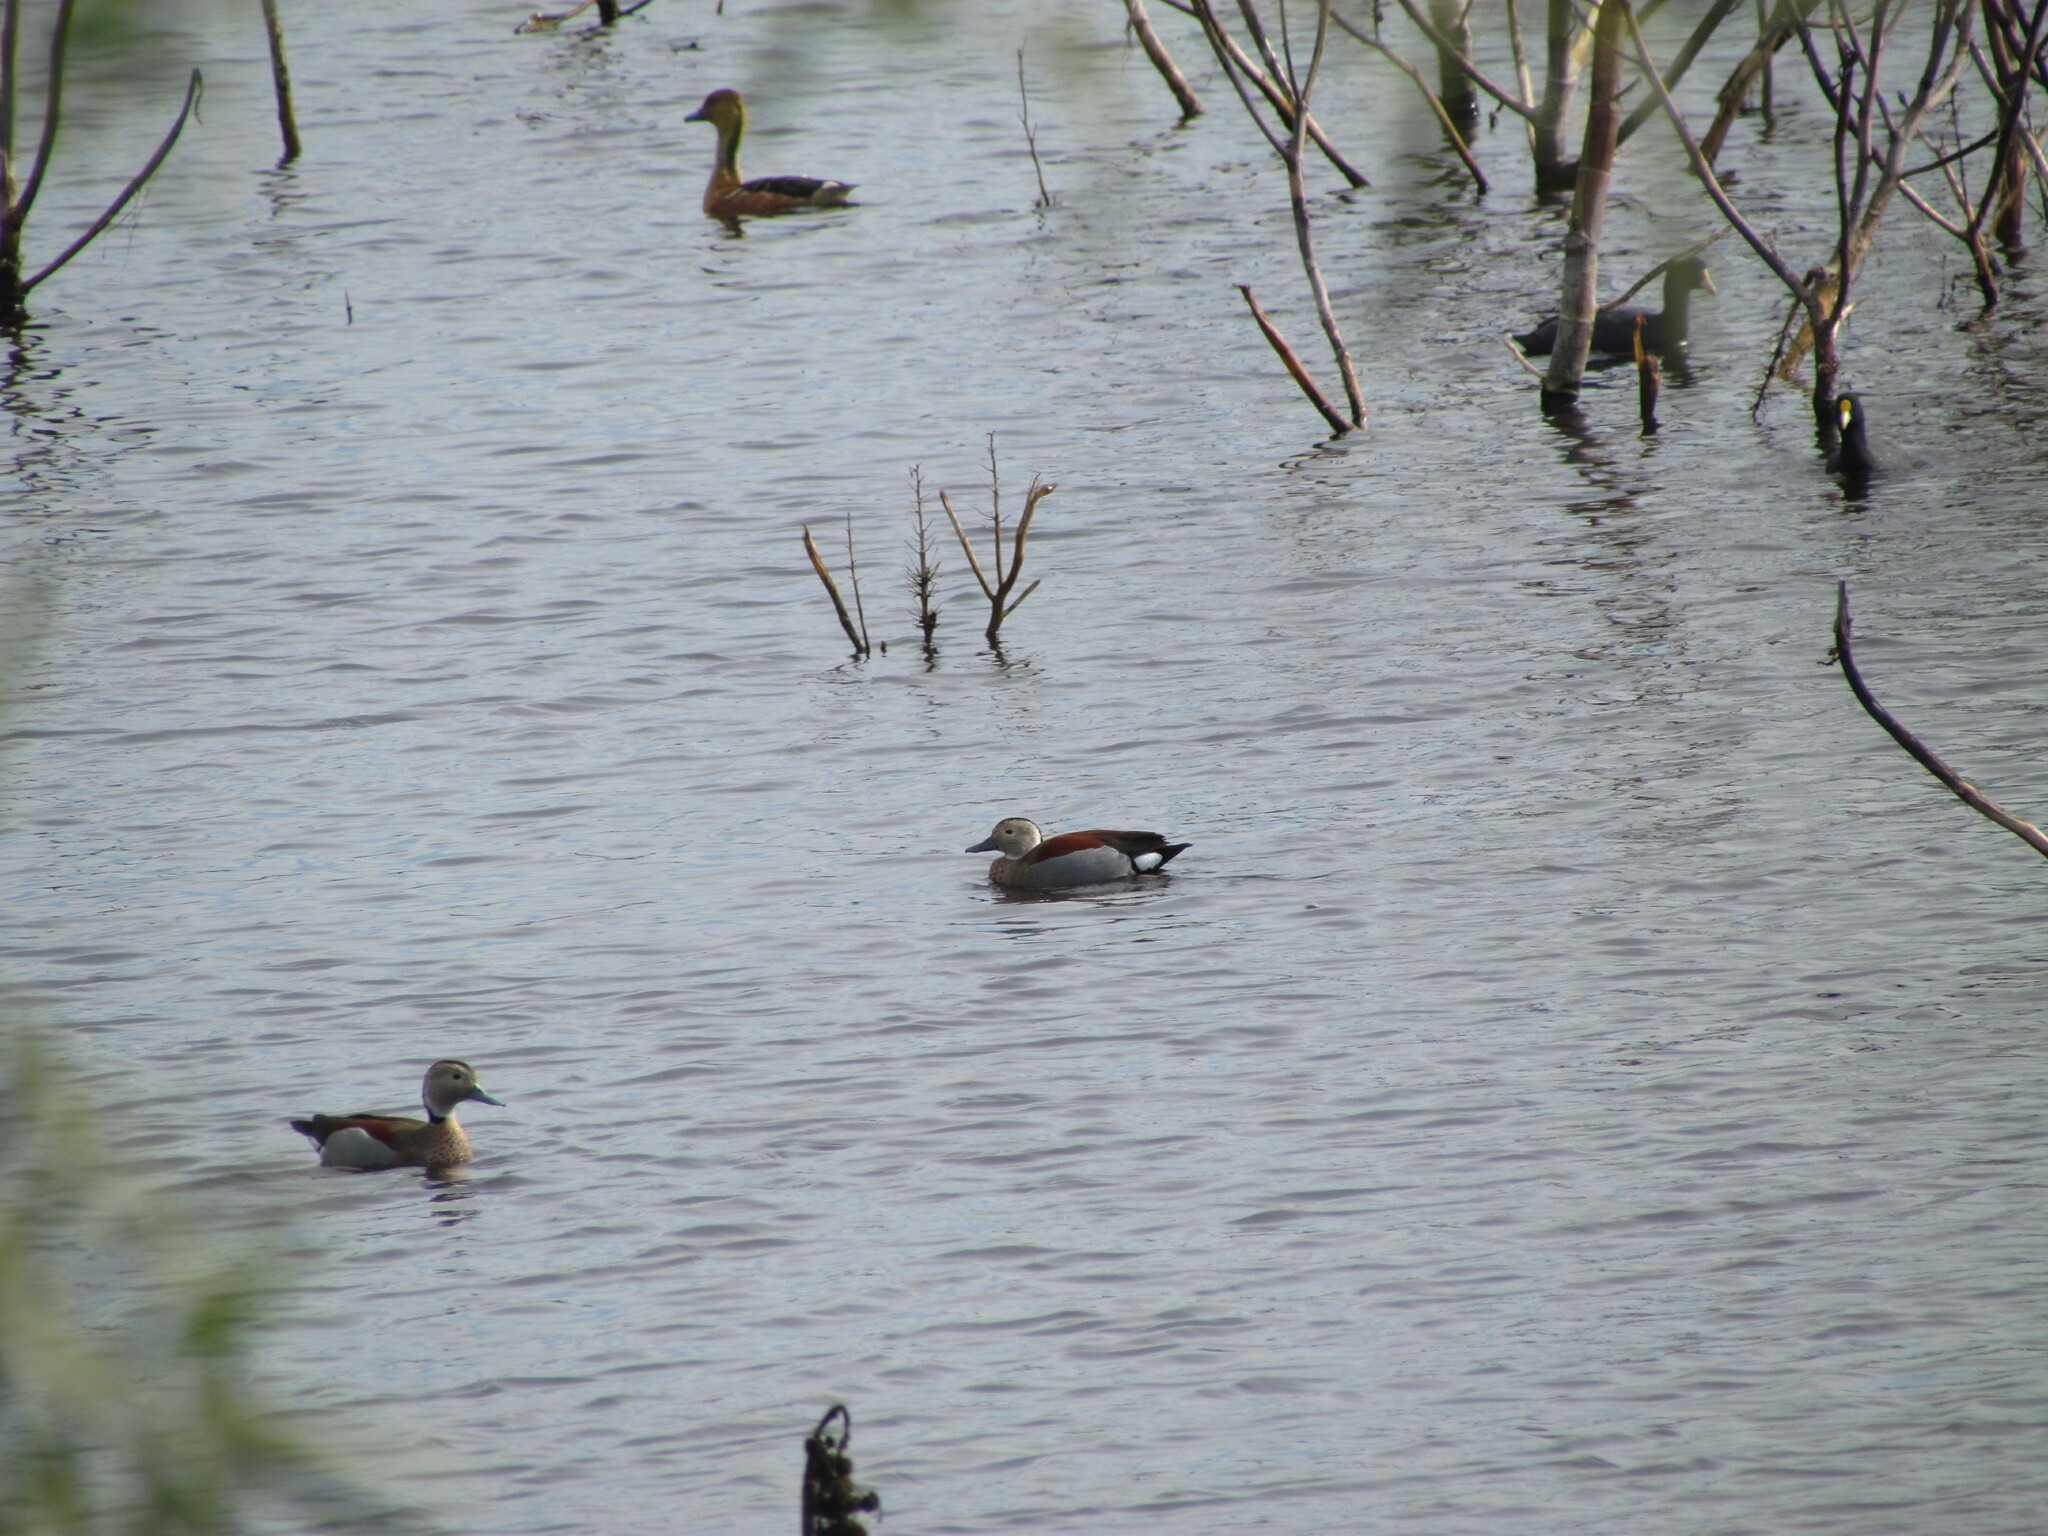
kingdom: Animalia
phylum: Chordata
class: Aves
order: Anseriformes
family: Anatidae
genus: Callonetta
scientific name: Callonetta leucophrys
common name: Ringed teal
